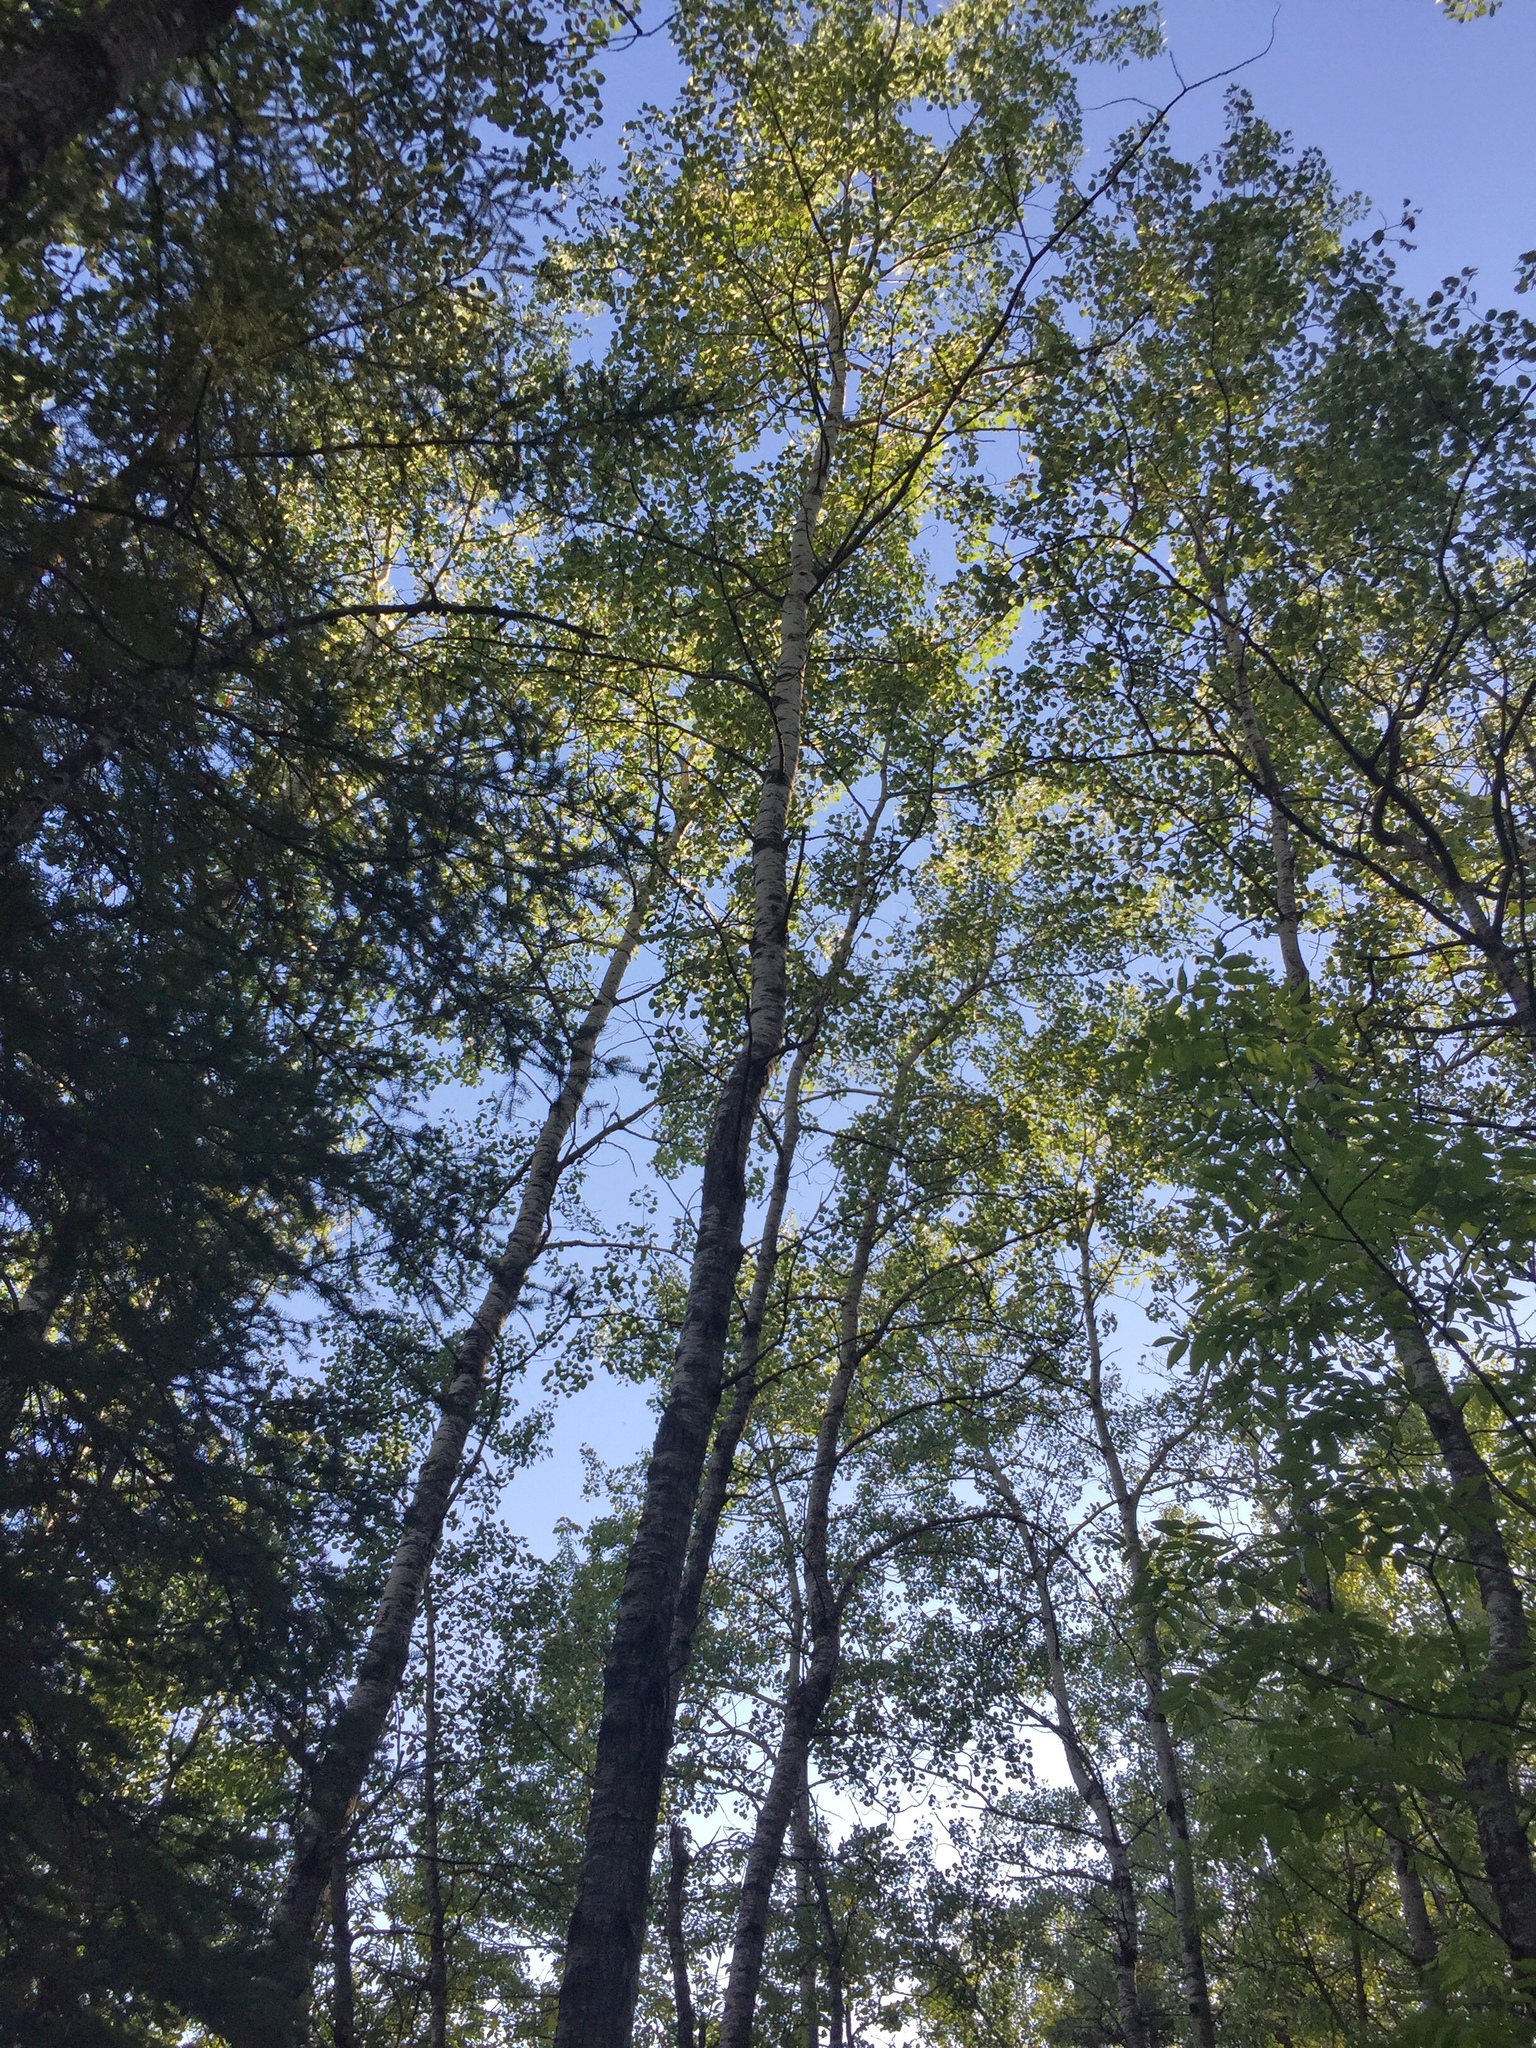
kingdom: Plantae
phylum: Tracheophyta
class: Magnoliopsida
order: Malpighiales
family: Salicaceae
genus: Populus
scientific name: Populus tremuloides
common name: Quaking aspen
